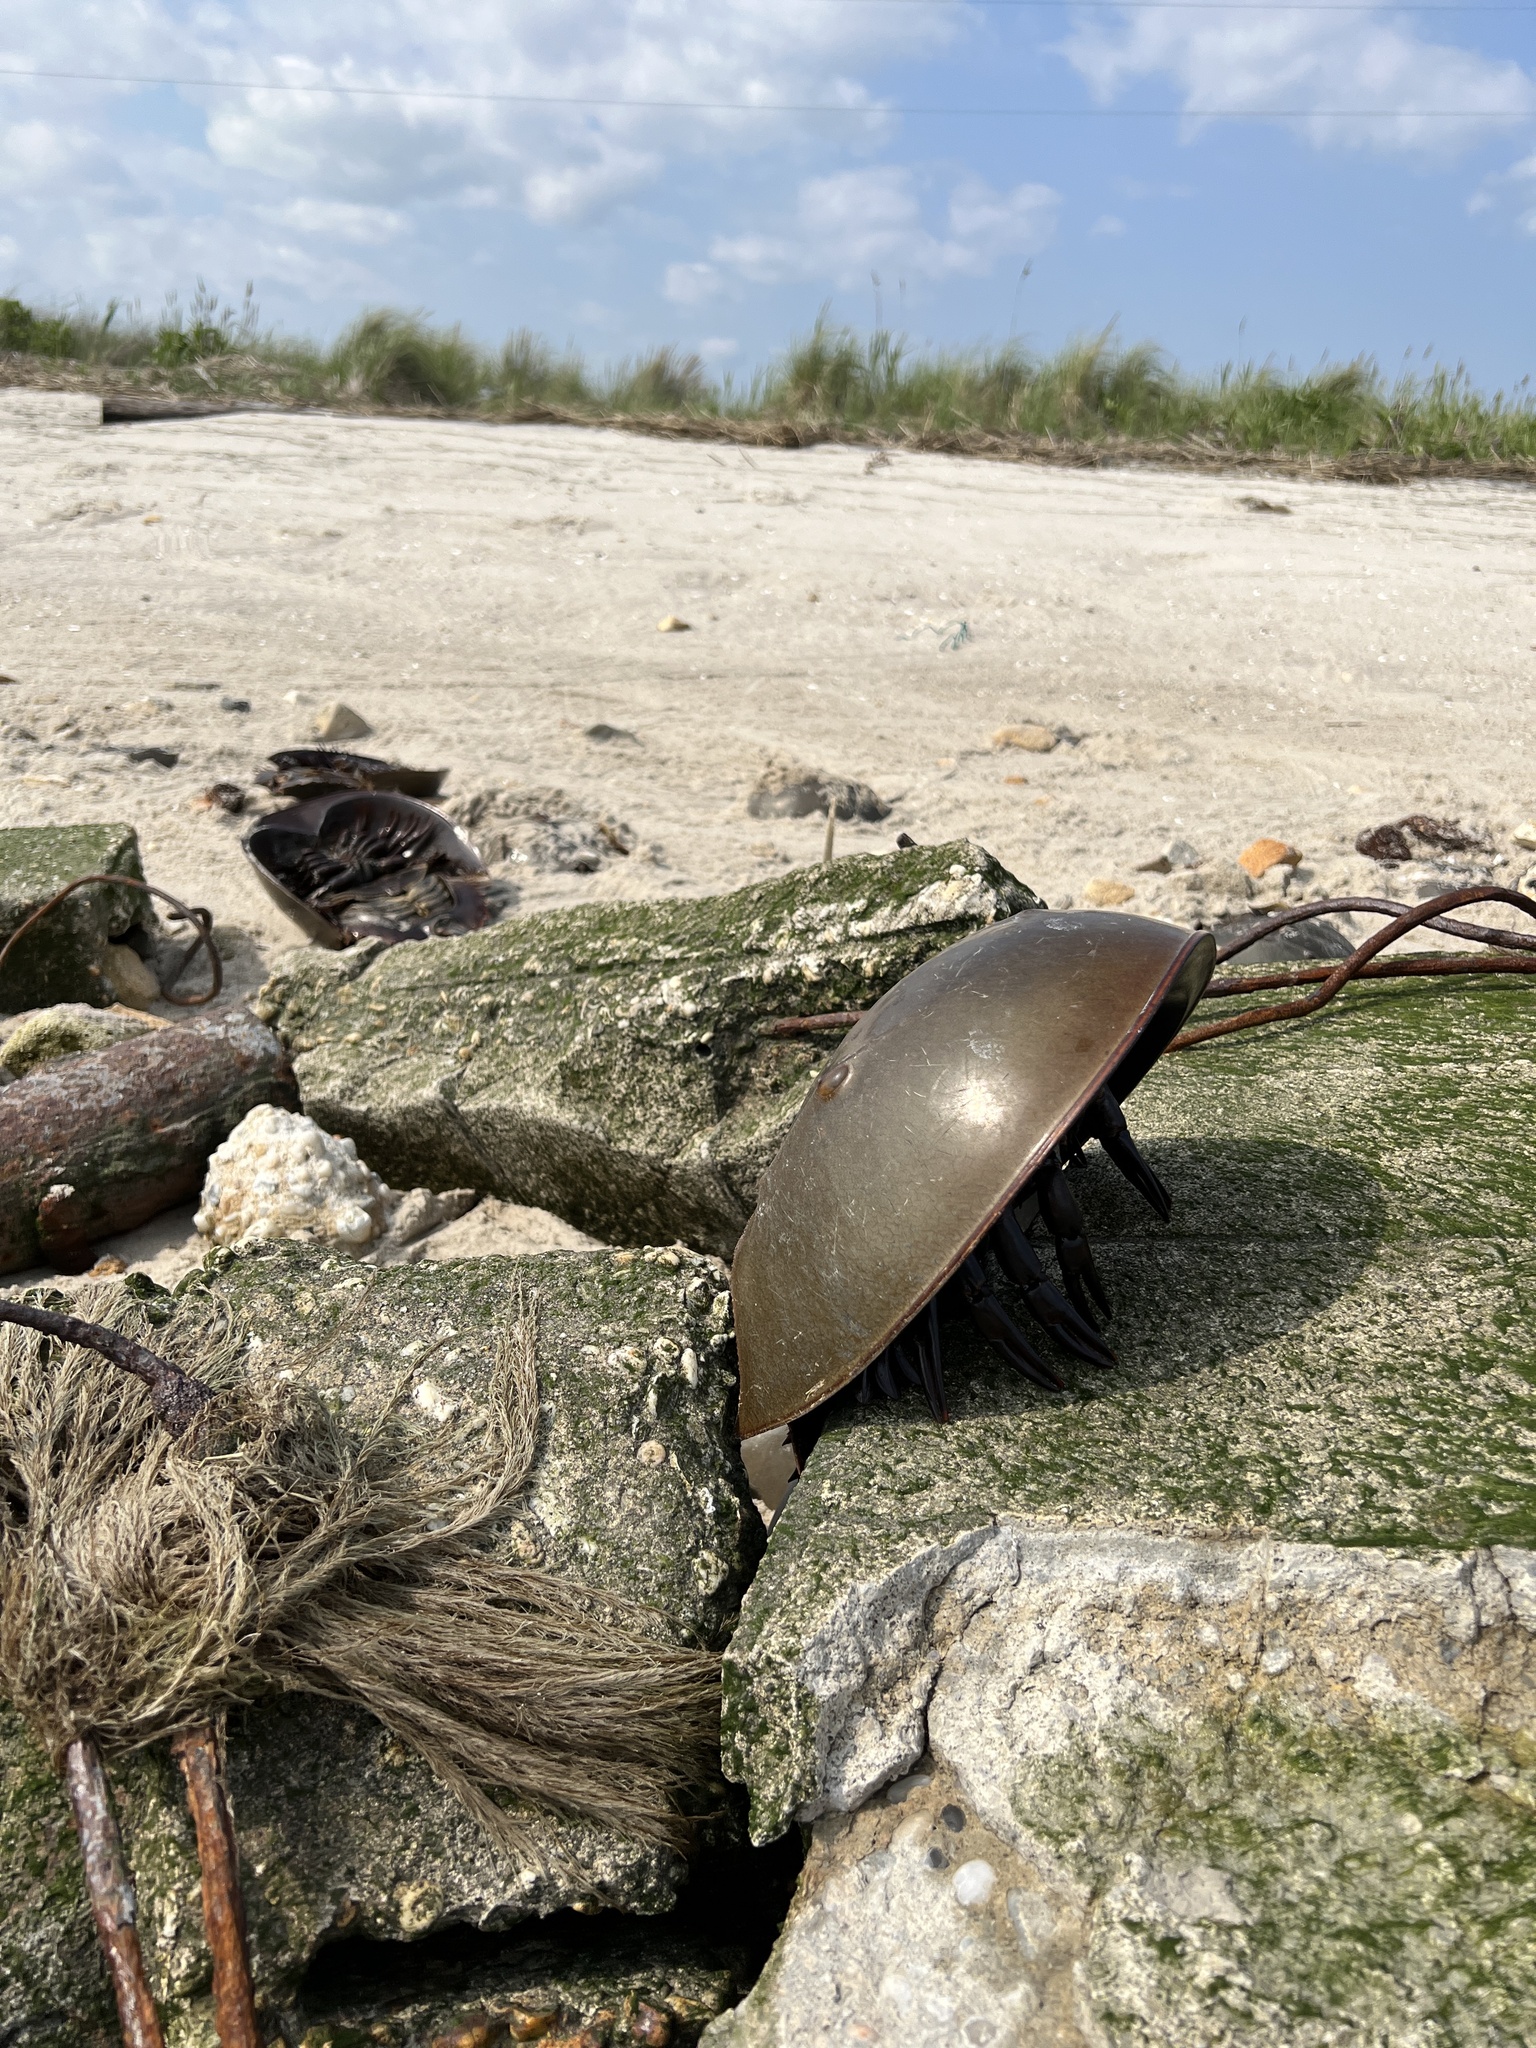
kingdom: Animalia
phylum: Arthropoda
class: Merostomata
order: Xiphosurida
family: Limulidae
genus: Limulus
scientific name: Limulus polyphemus
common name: Horseshoe crab
